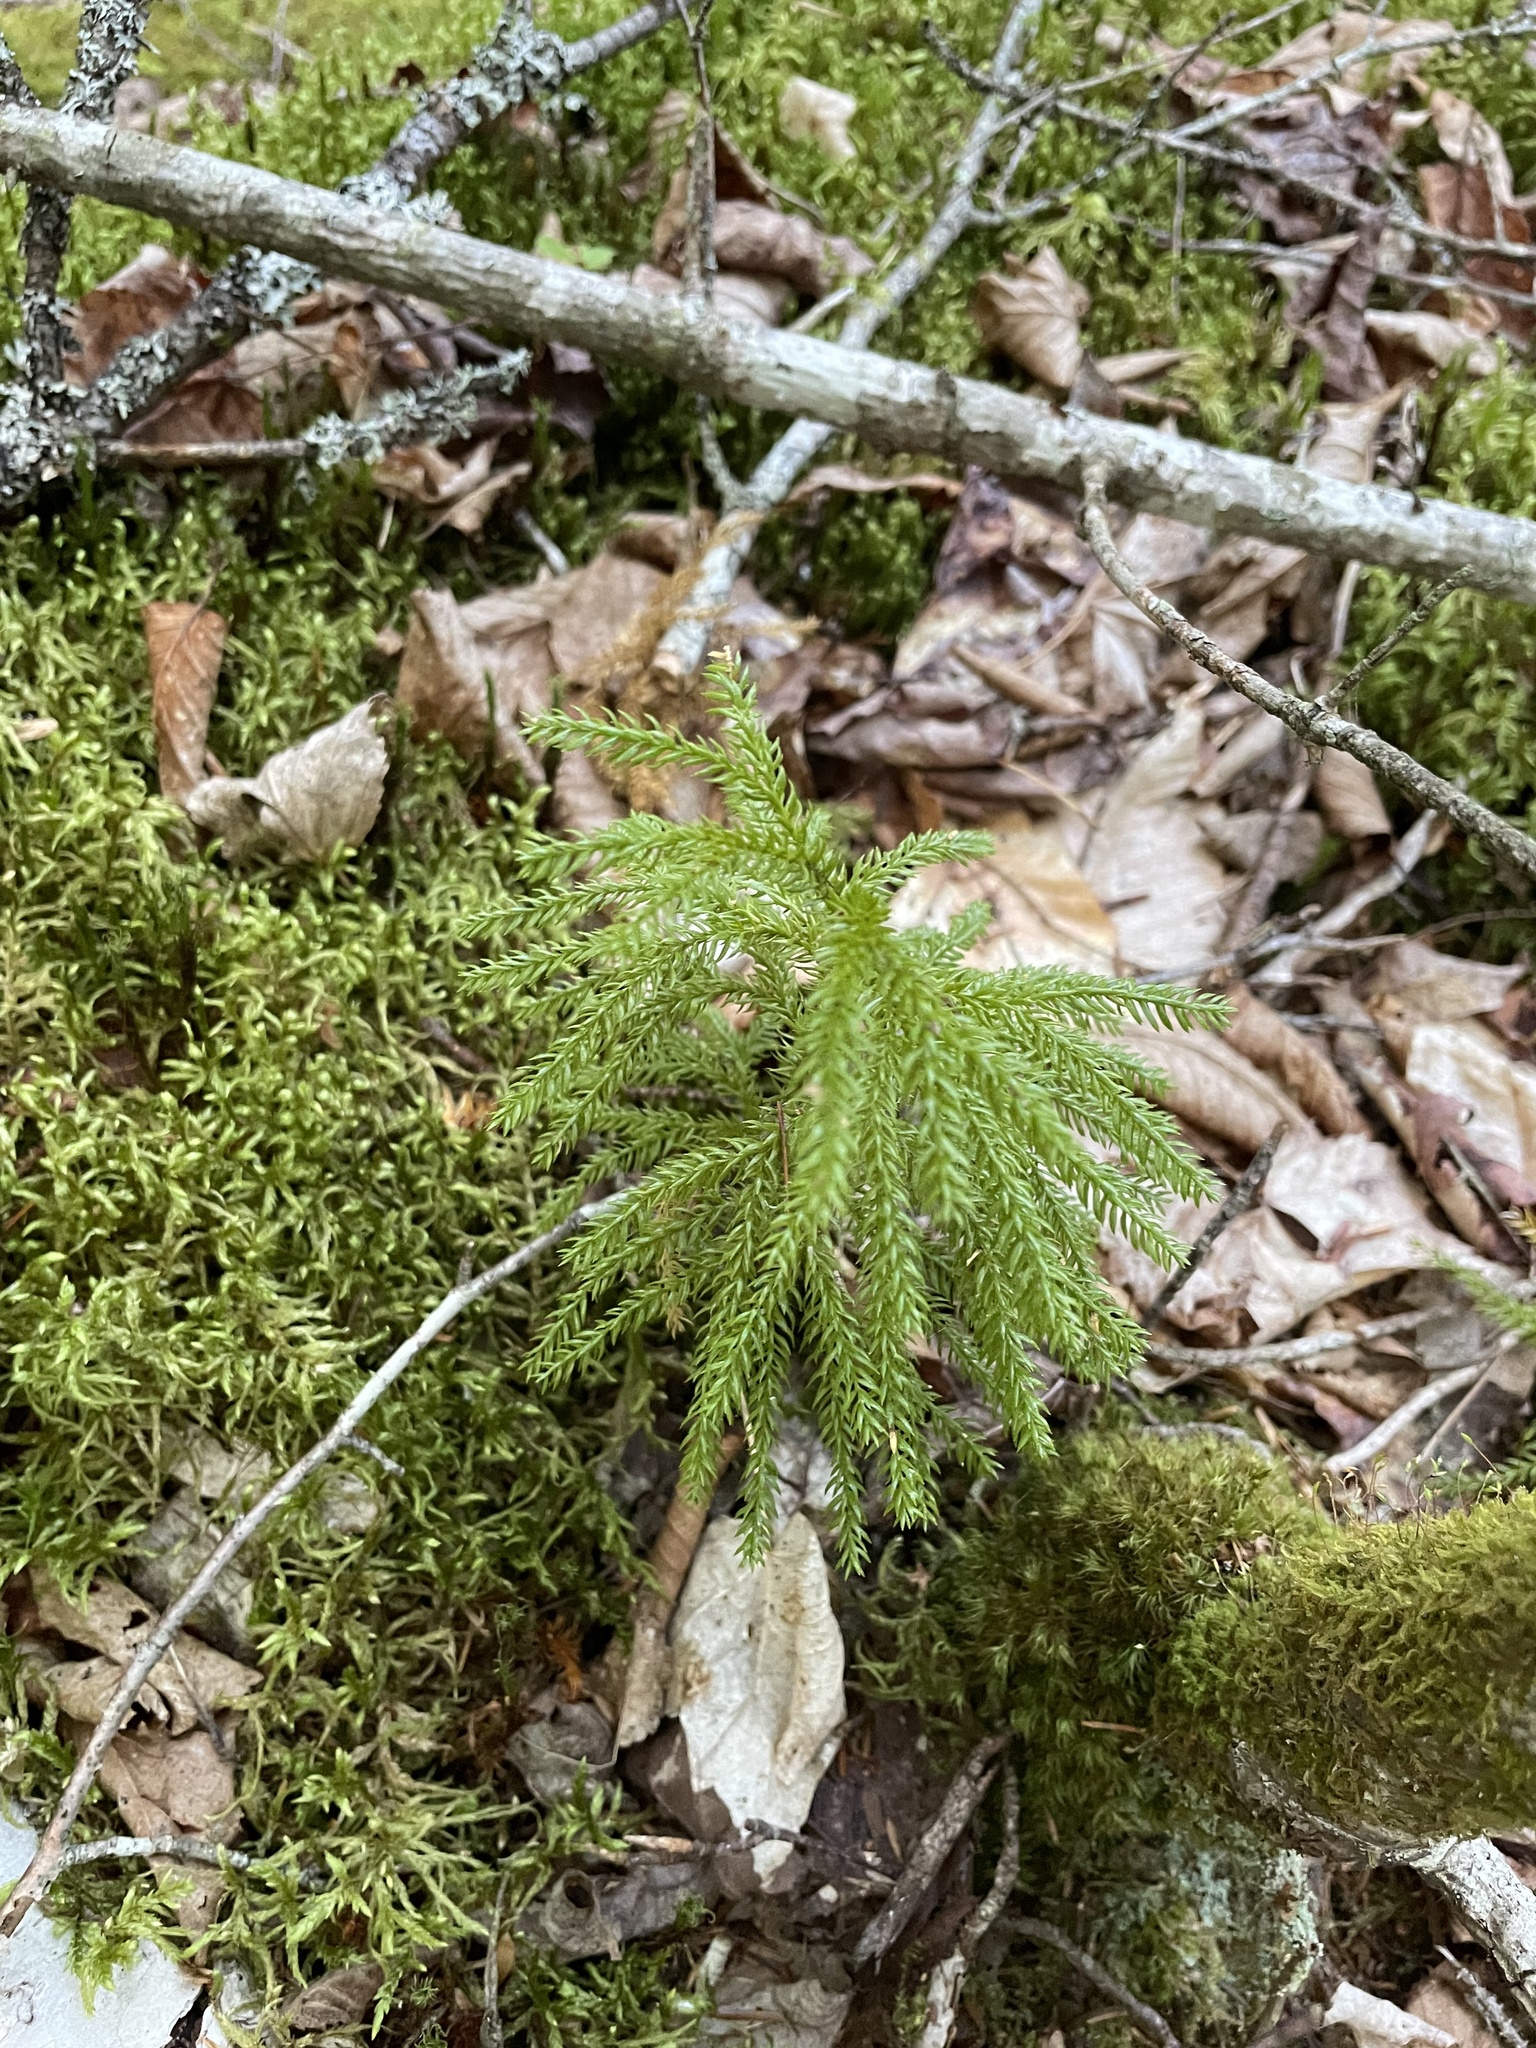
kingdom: Plantae
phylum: Tracheophyta
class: Lycopodiopsida
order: Lycopodiales
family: Lycopodiaceae
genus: Dendrolycopodium
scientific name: Dendrolycopodium dendroideum
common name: Northern tree-clubmoss
